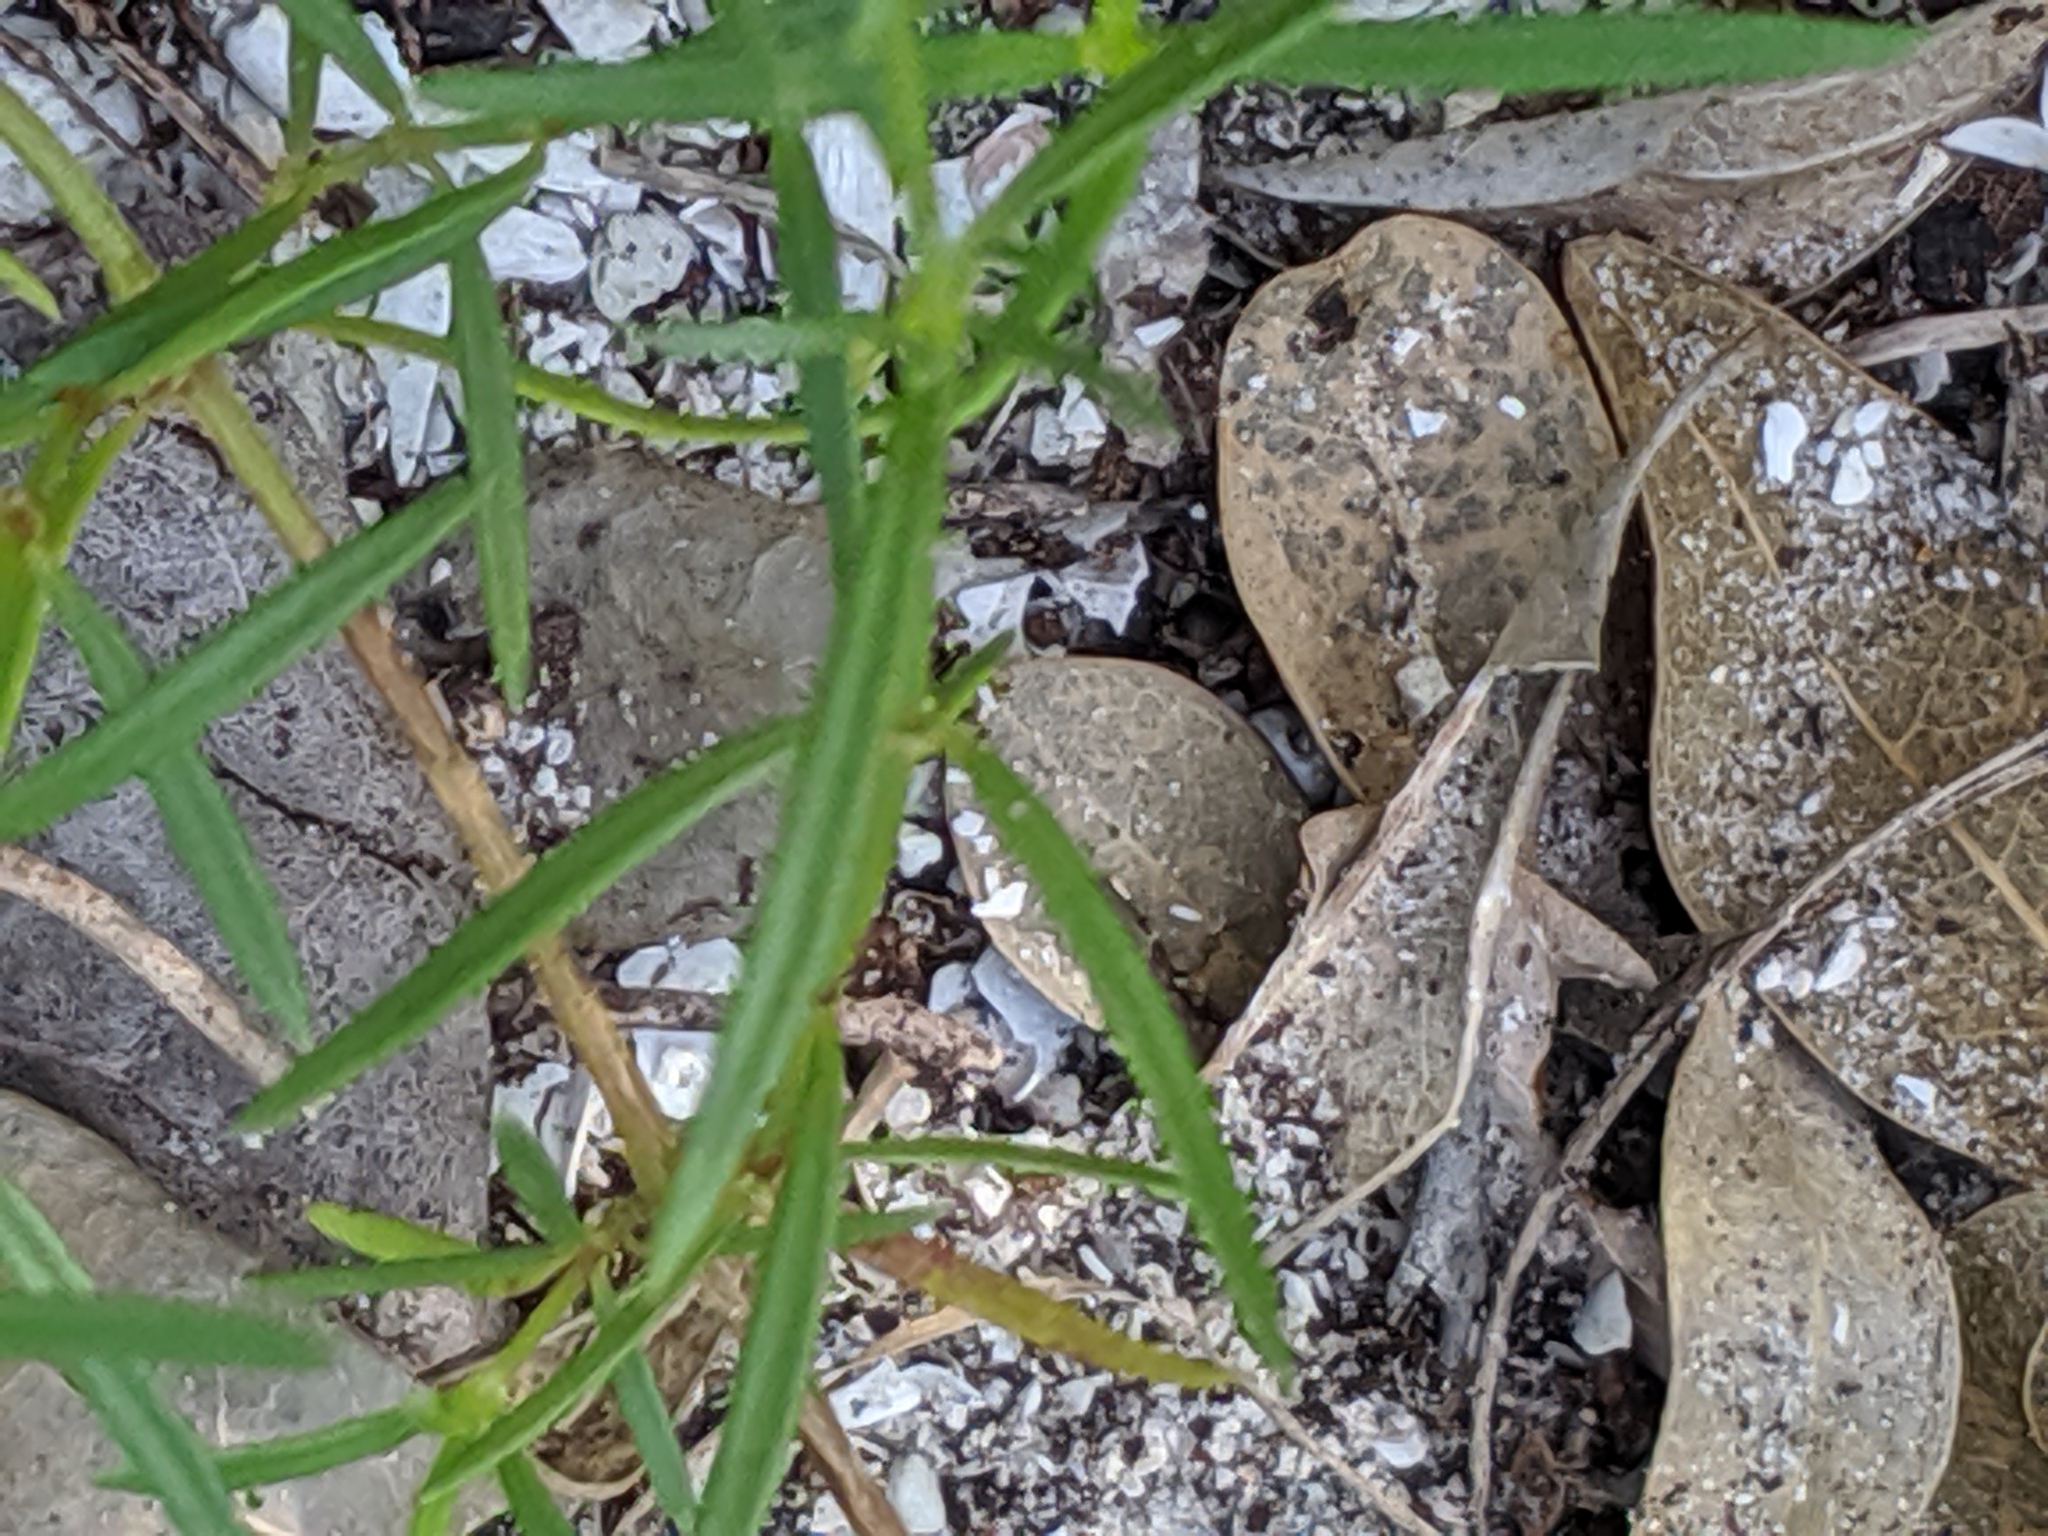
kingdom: Plantae
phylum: Tracheophyta
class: Magnoliopsida
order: Gentianales
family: Rubiaceae
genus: Stenaria
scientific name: Stenaria nigricans
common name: Diamondflowers
